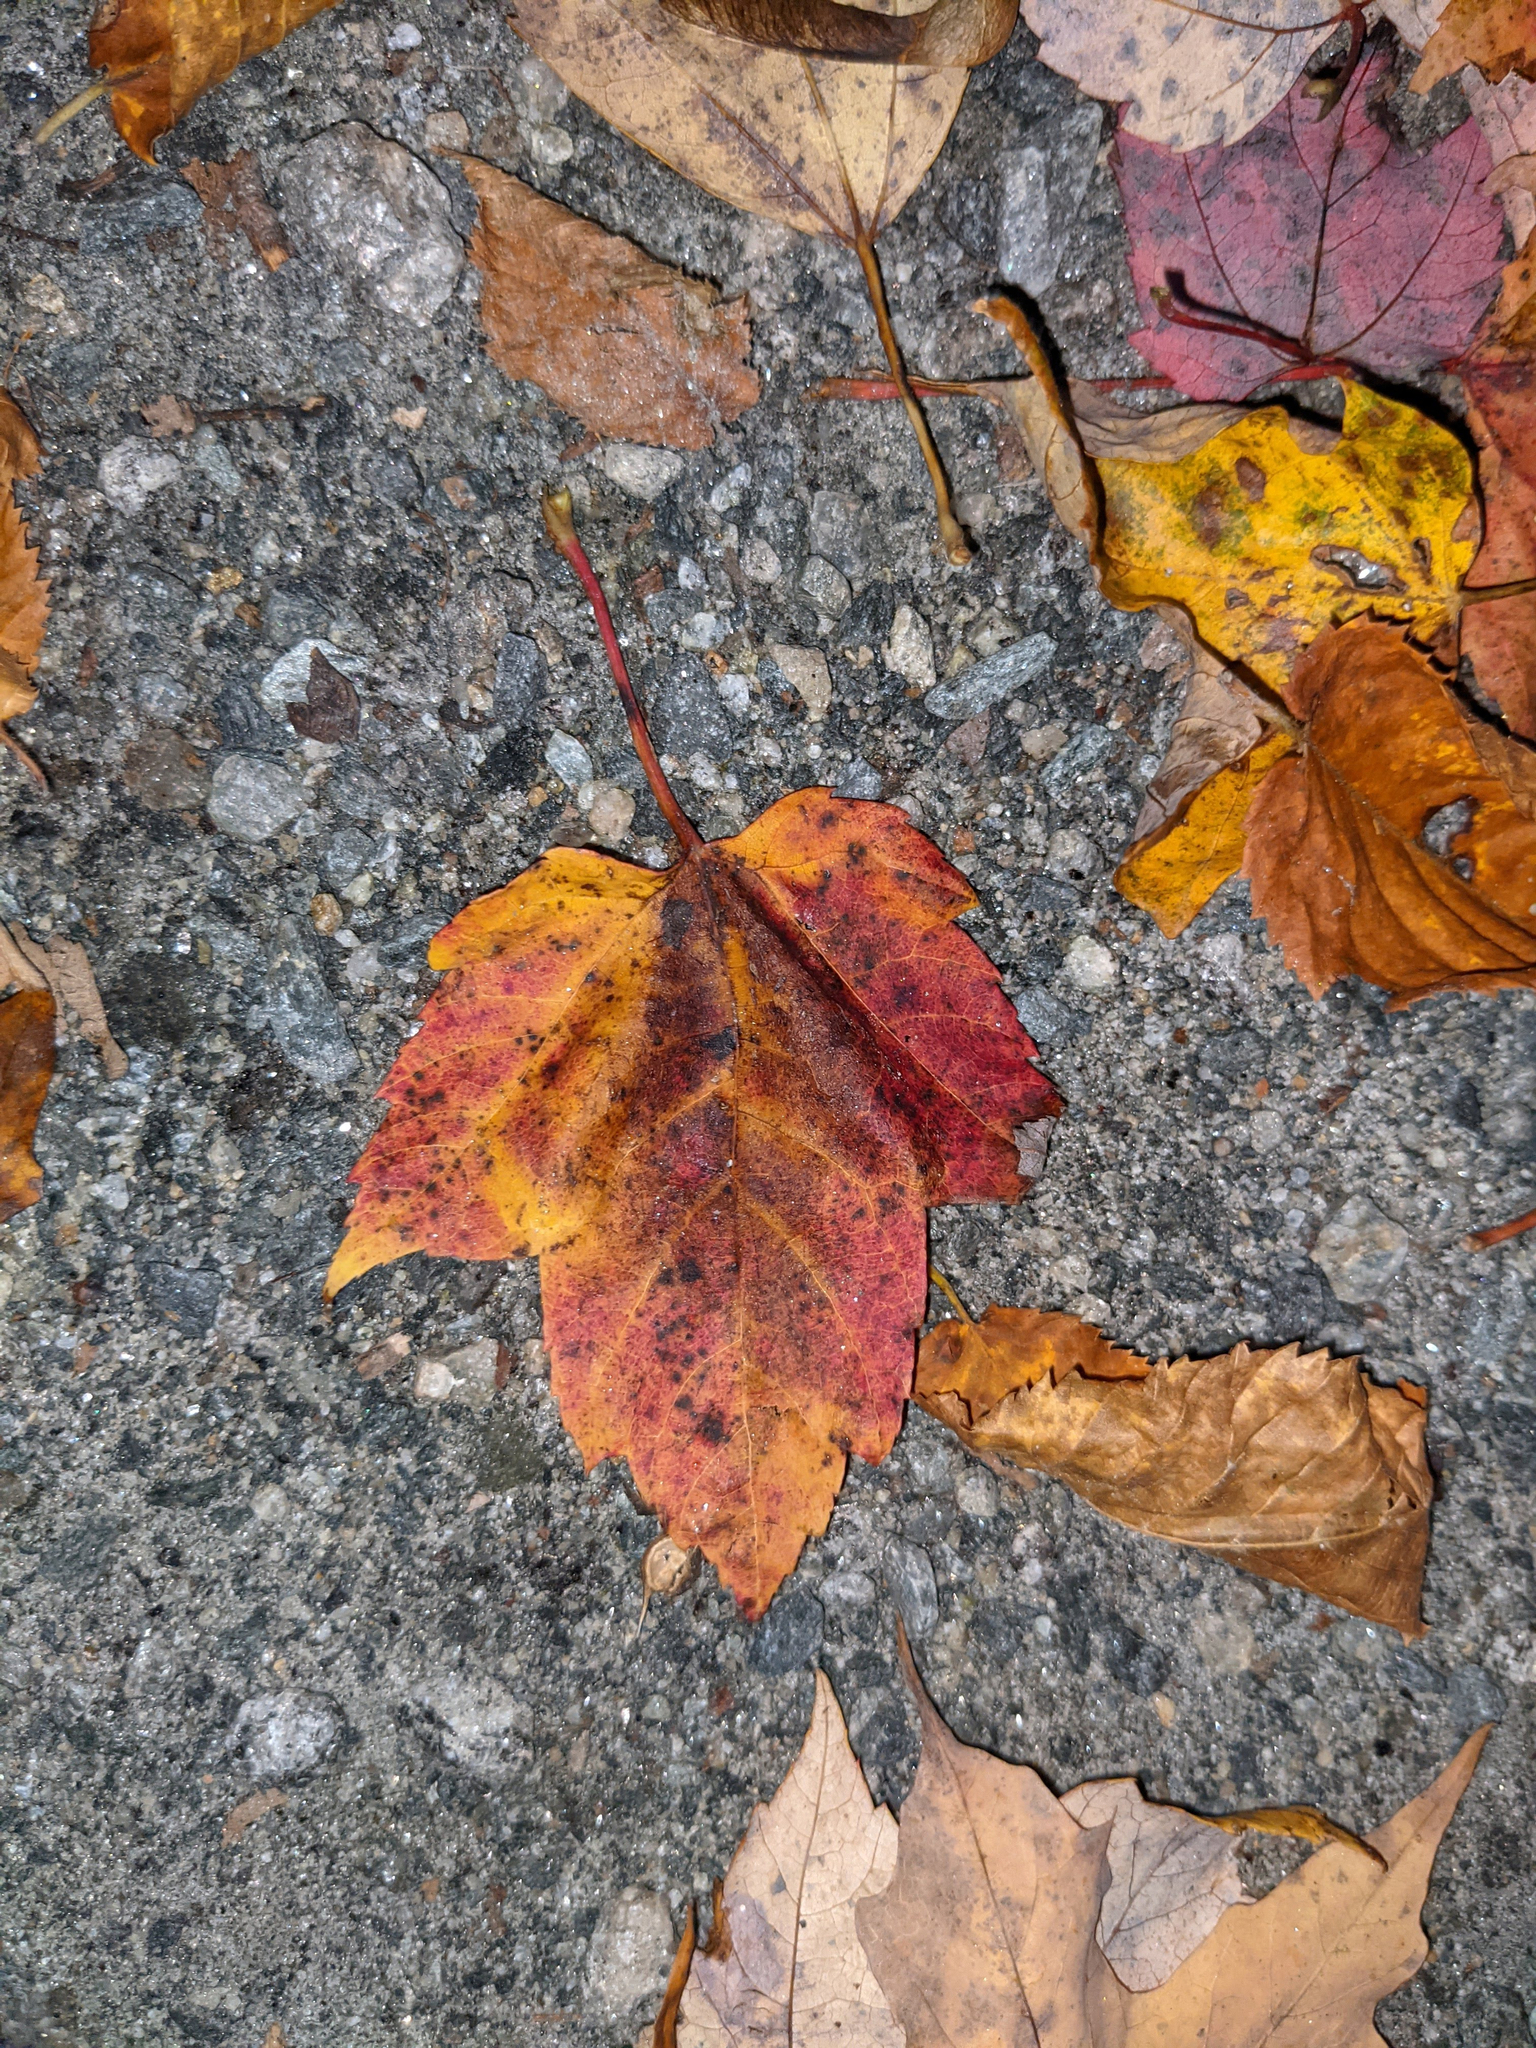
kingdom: Plantae
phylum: Tracheophyta
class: Magnoliopsida
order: Sapindales
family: Sapindaceae
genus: Acer
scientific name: Acer rubrum
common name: Red maple
